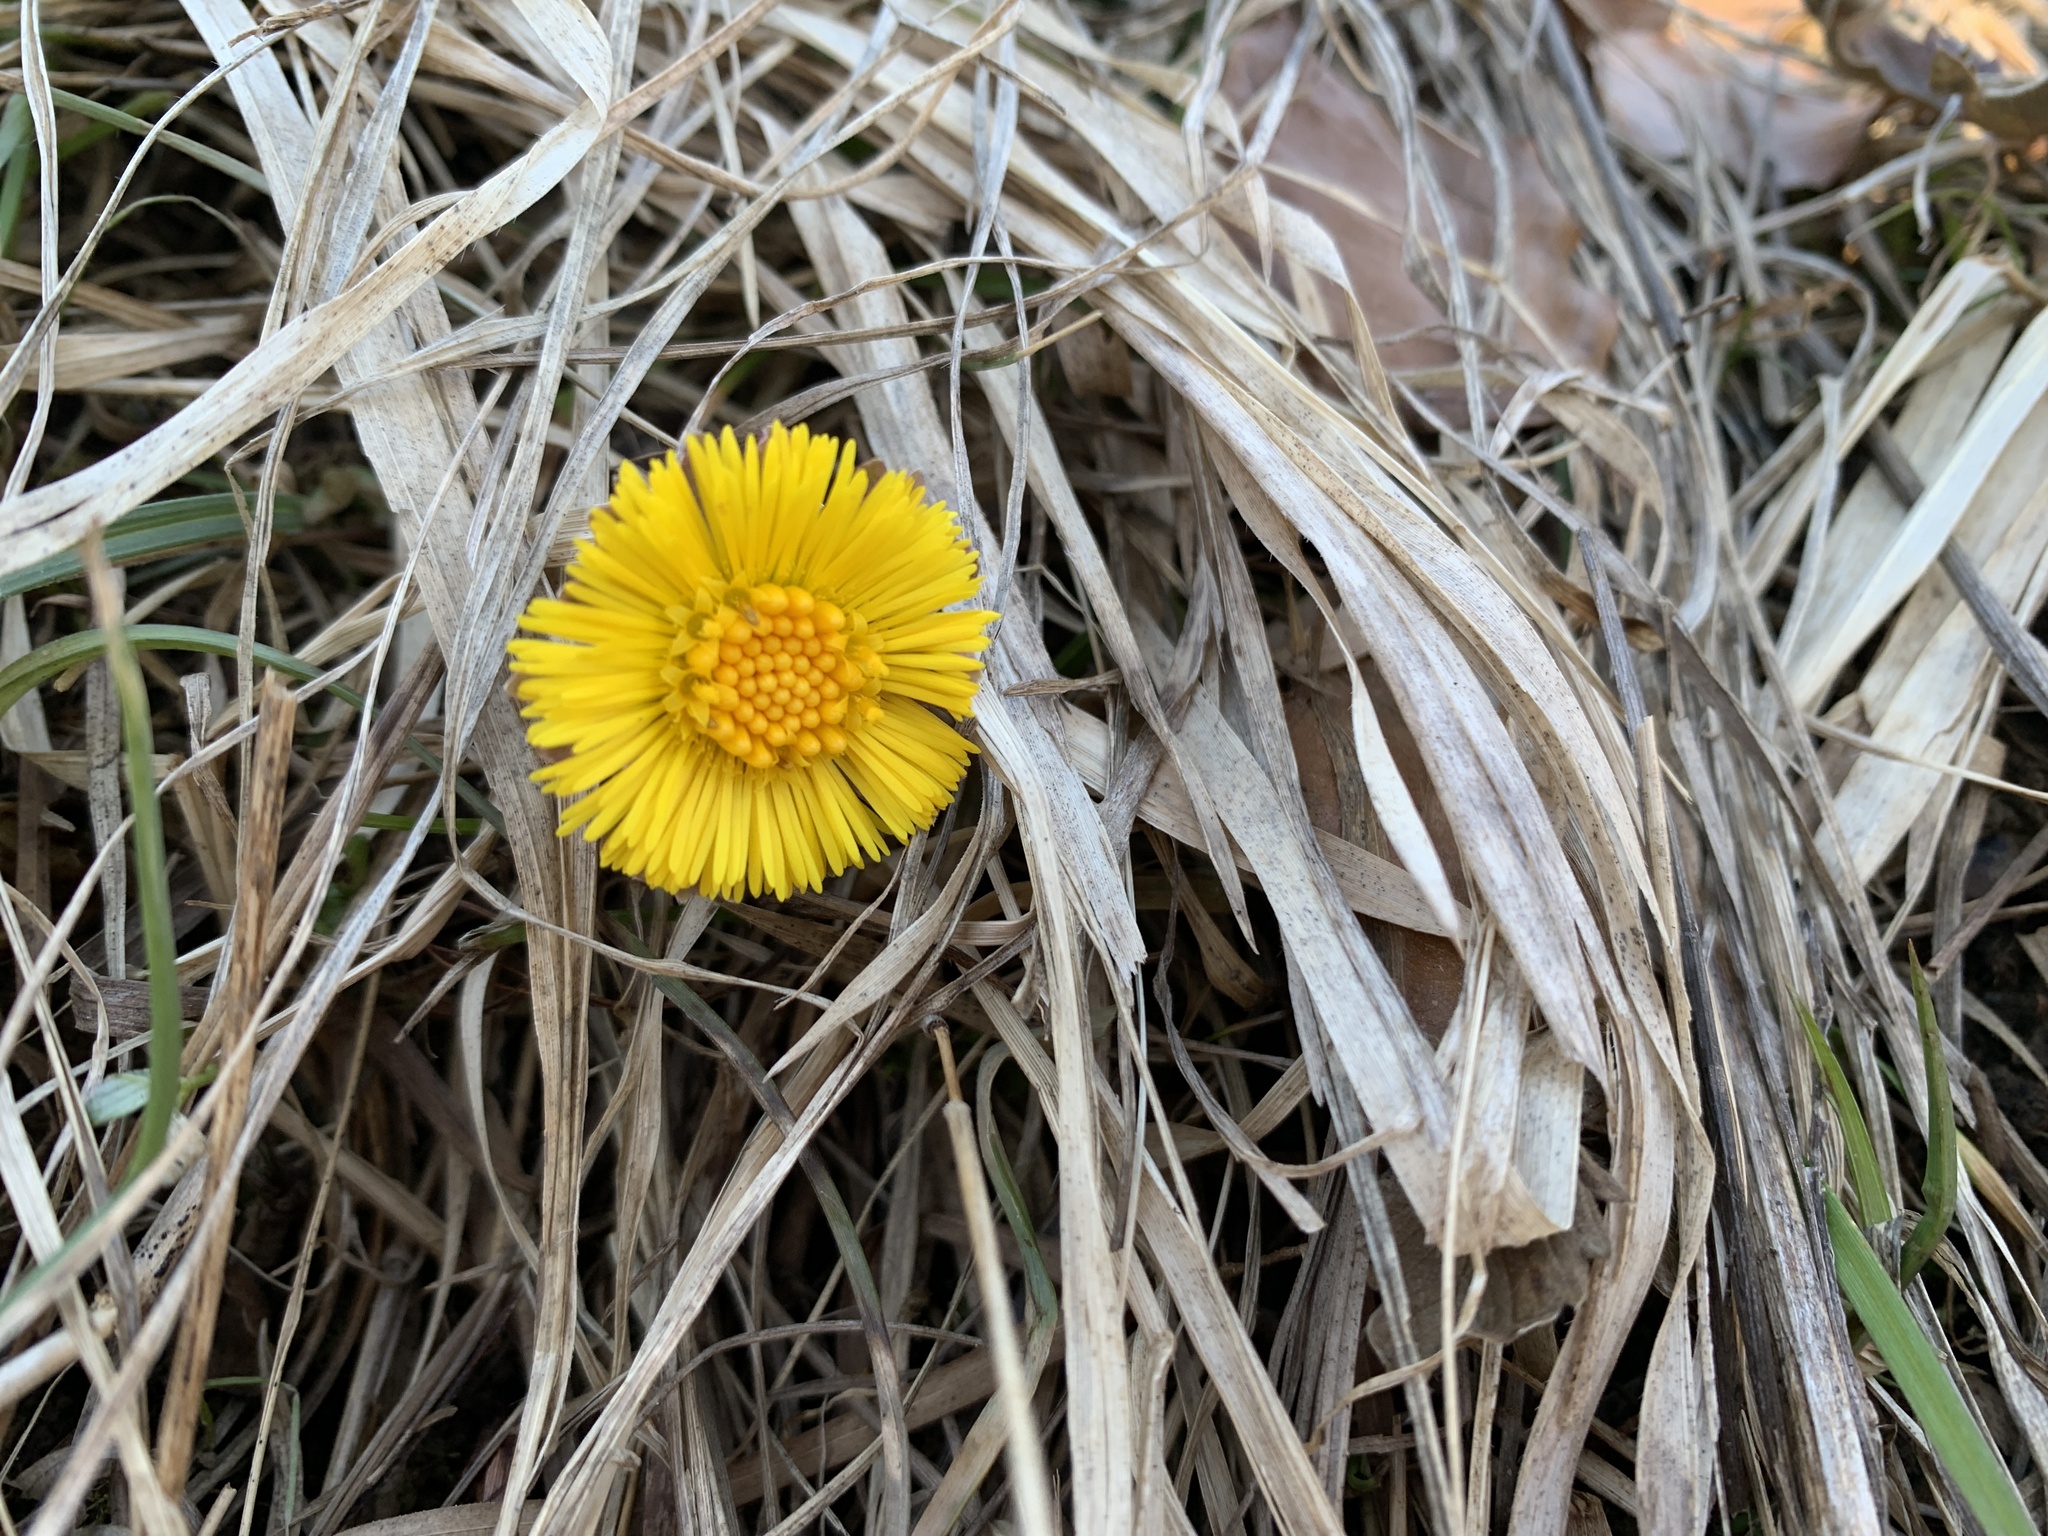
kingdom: Plantae
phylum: Tracheophyta
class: Magnoliopsida
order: Asterales
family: Asteraceae
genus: Tussilago
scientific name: Tussilago farfara
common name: Coltsfoot
